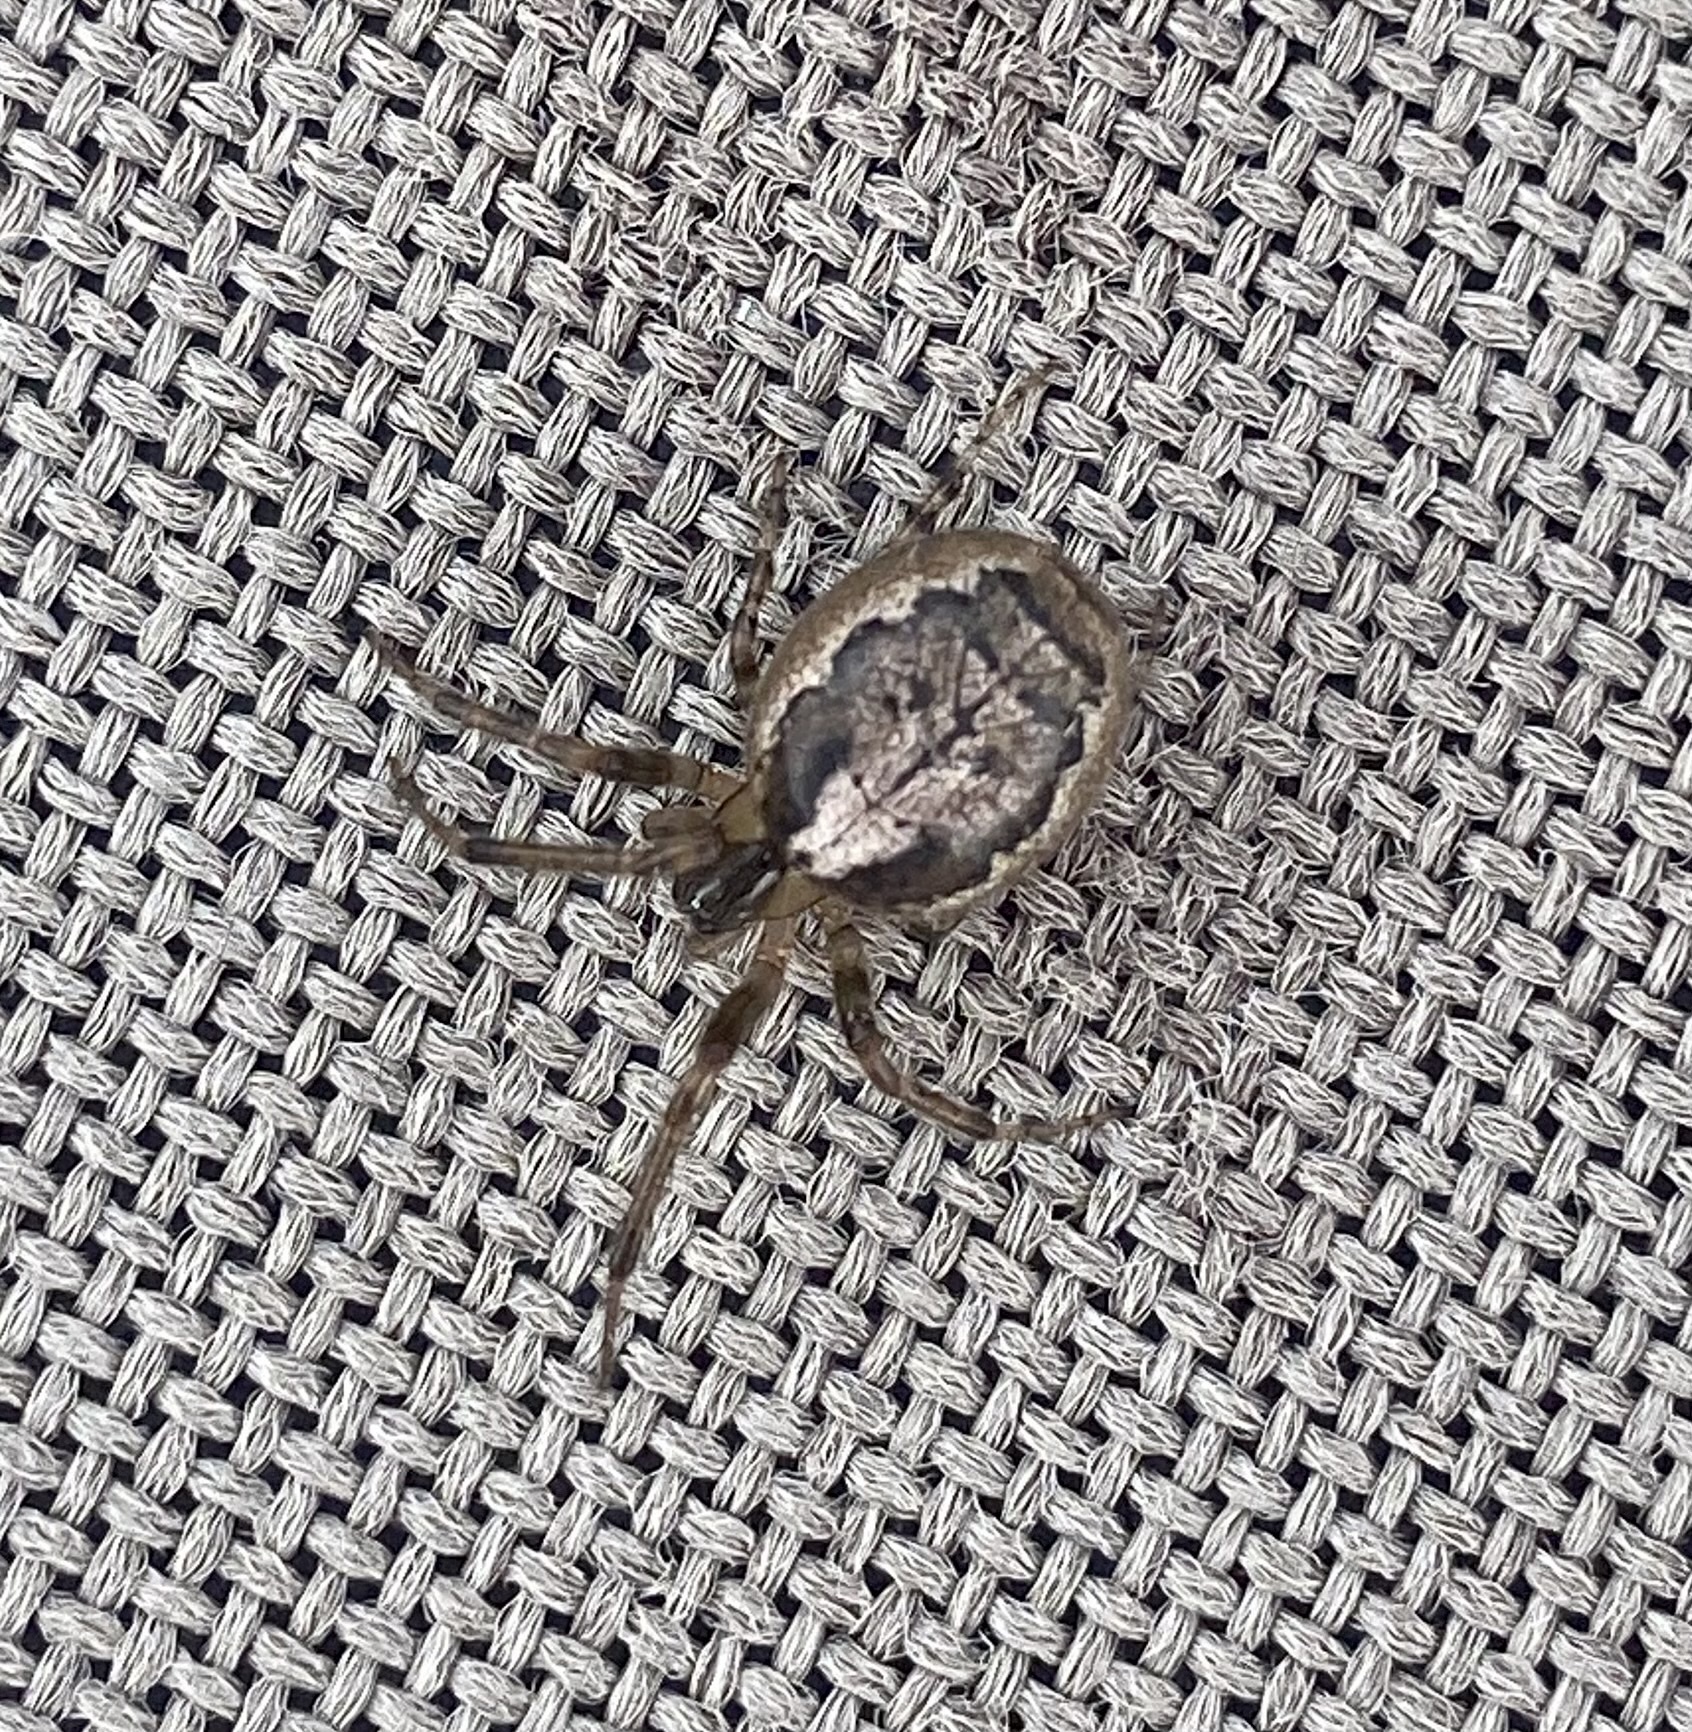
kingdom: Animalia
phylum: Arthropoda
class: Arachnida
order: Araneae
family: Araneidae
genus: Zygiella
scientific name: Zygiella x-notata
